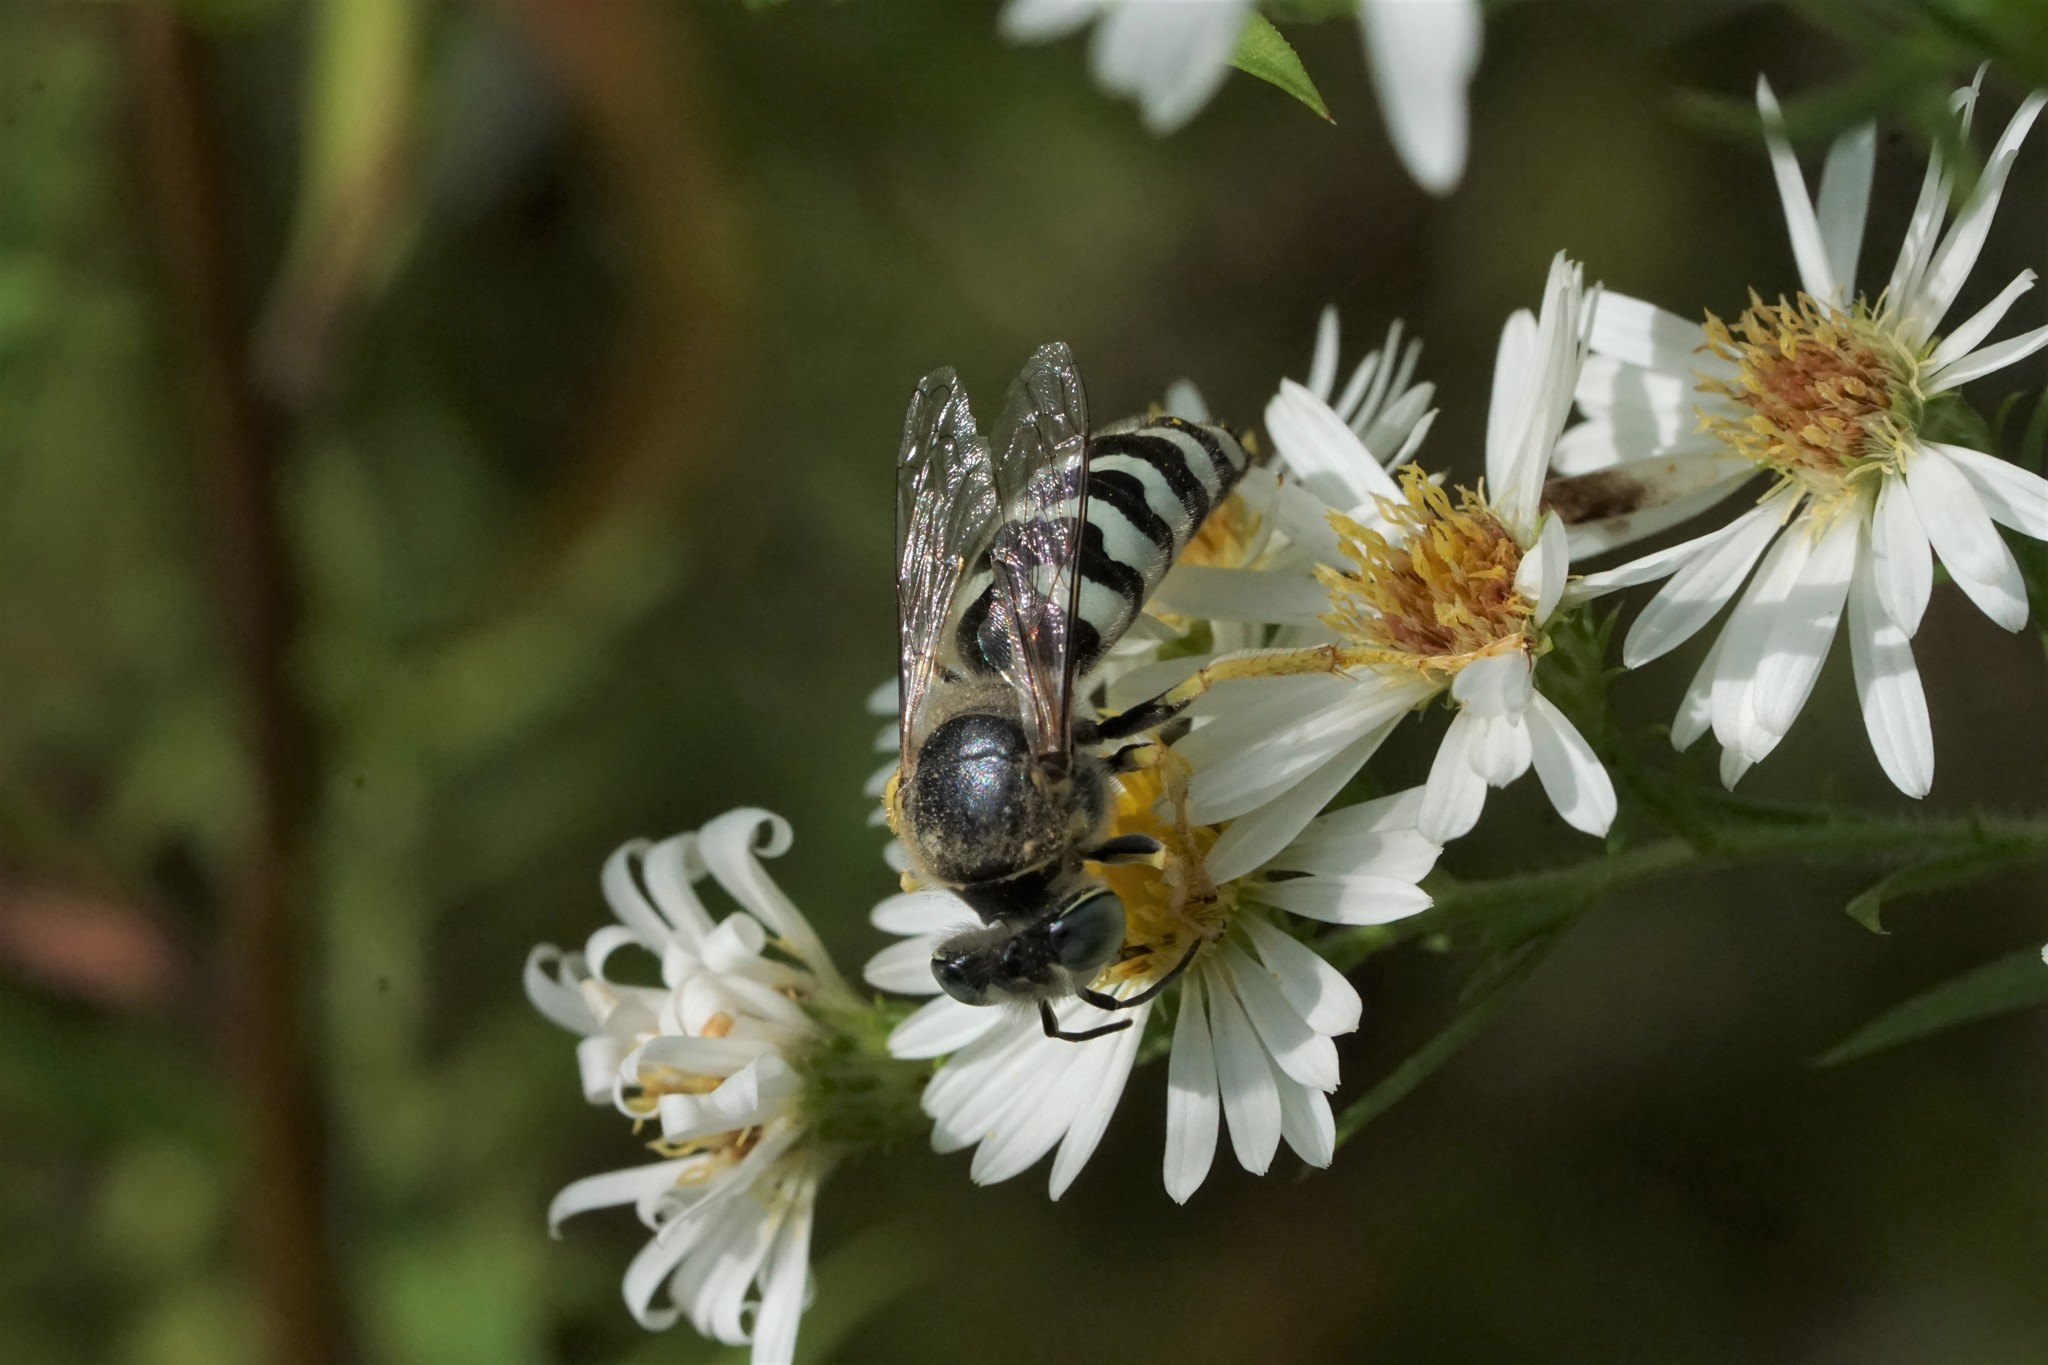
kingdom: Animalia
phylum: Arthropoda
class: Insecta
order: Hymenoptera
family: Crabronidae
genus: Bembix
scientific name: Bembix americana
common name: American sand wasp
